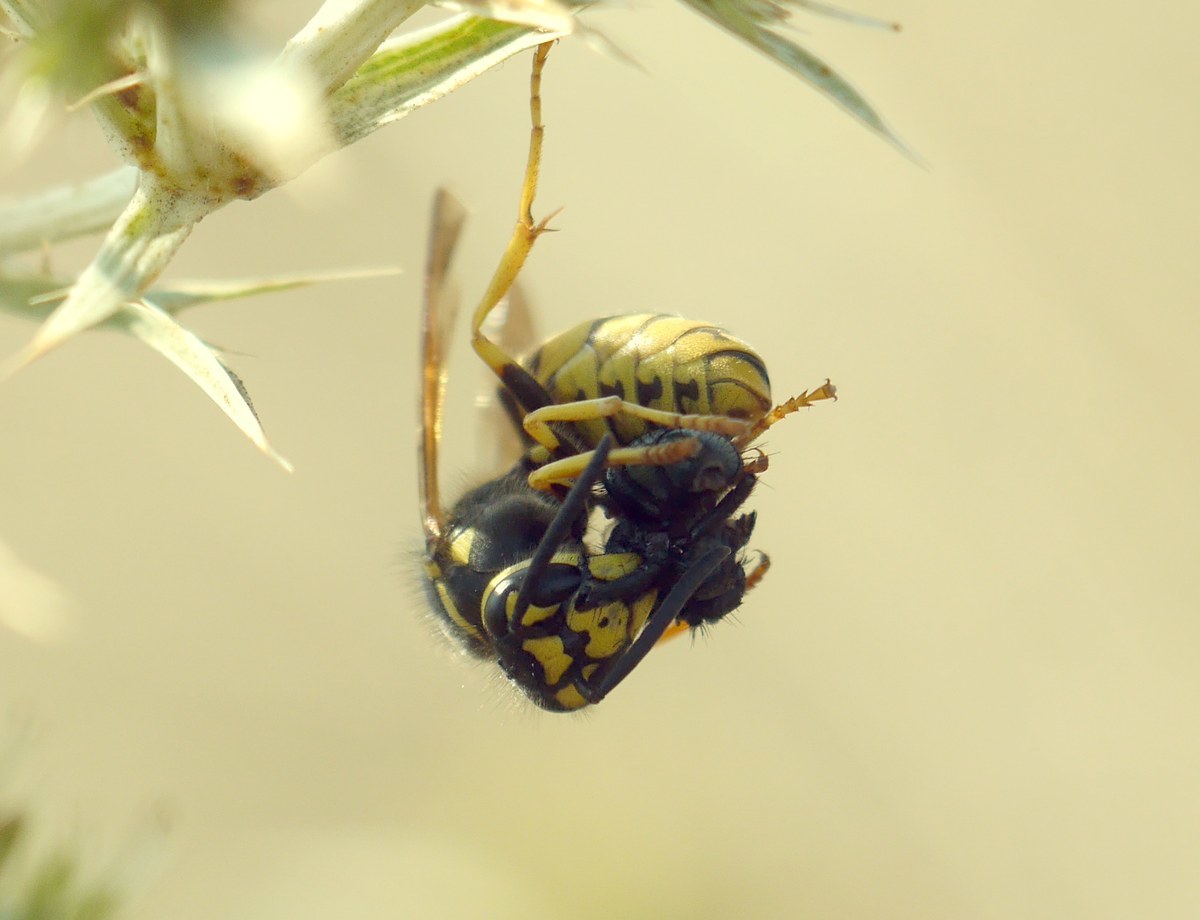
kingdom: Animalia
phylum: Arthropoda
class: Insecta
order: Hymenoptera
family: Vespidae
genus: Vespula
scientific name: Vespula germanica
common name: German wasp
